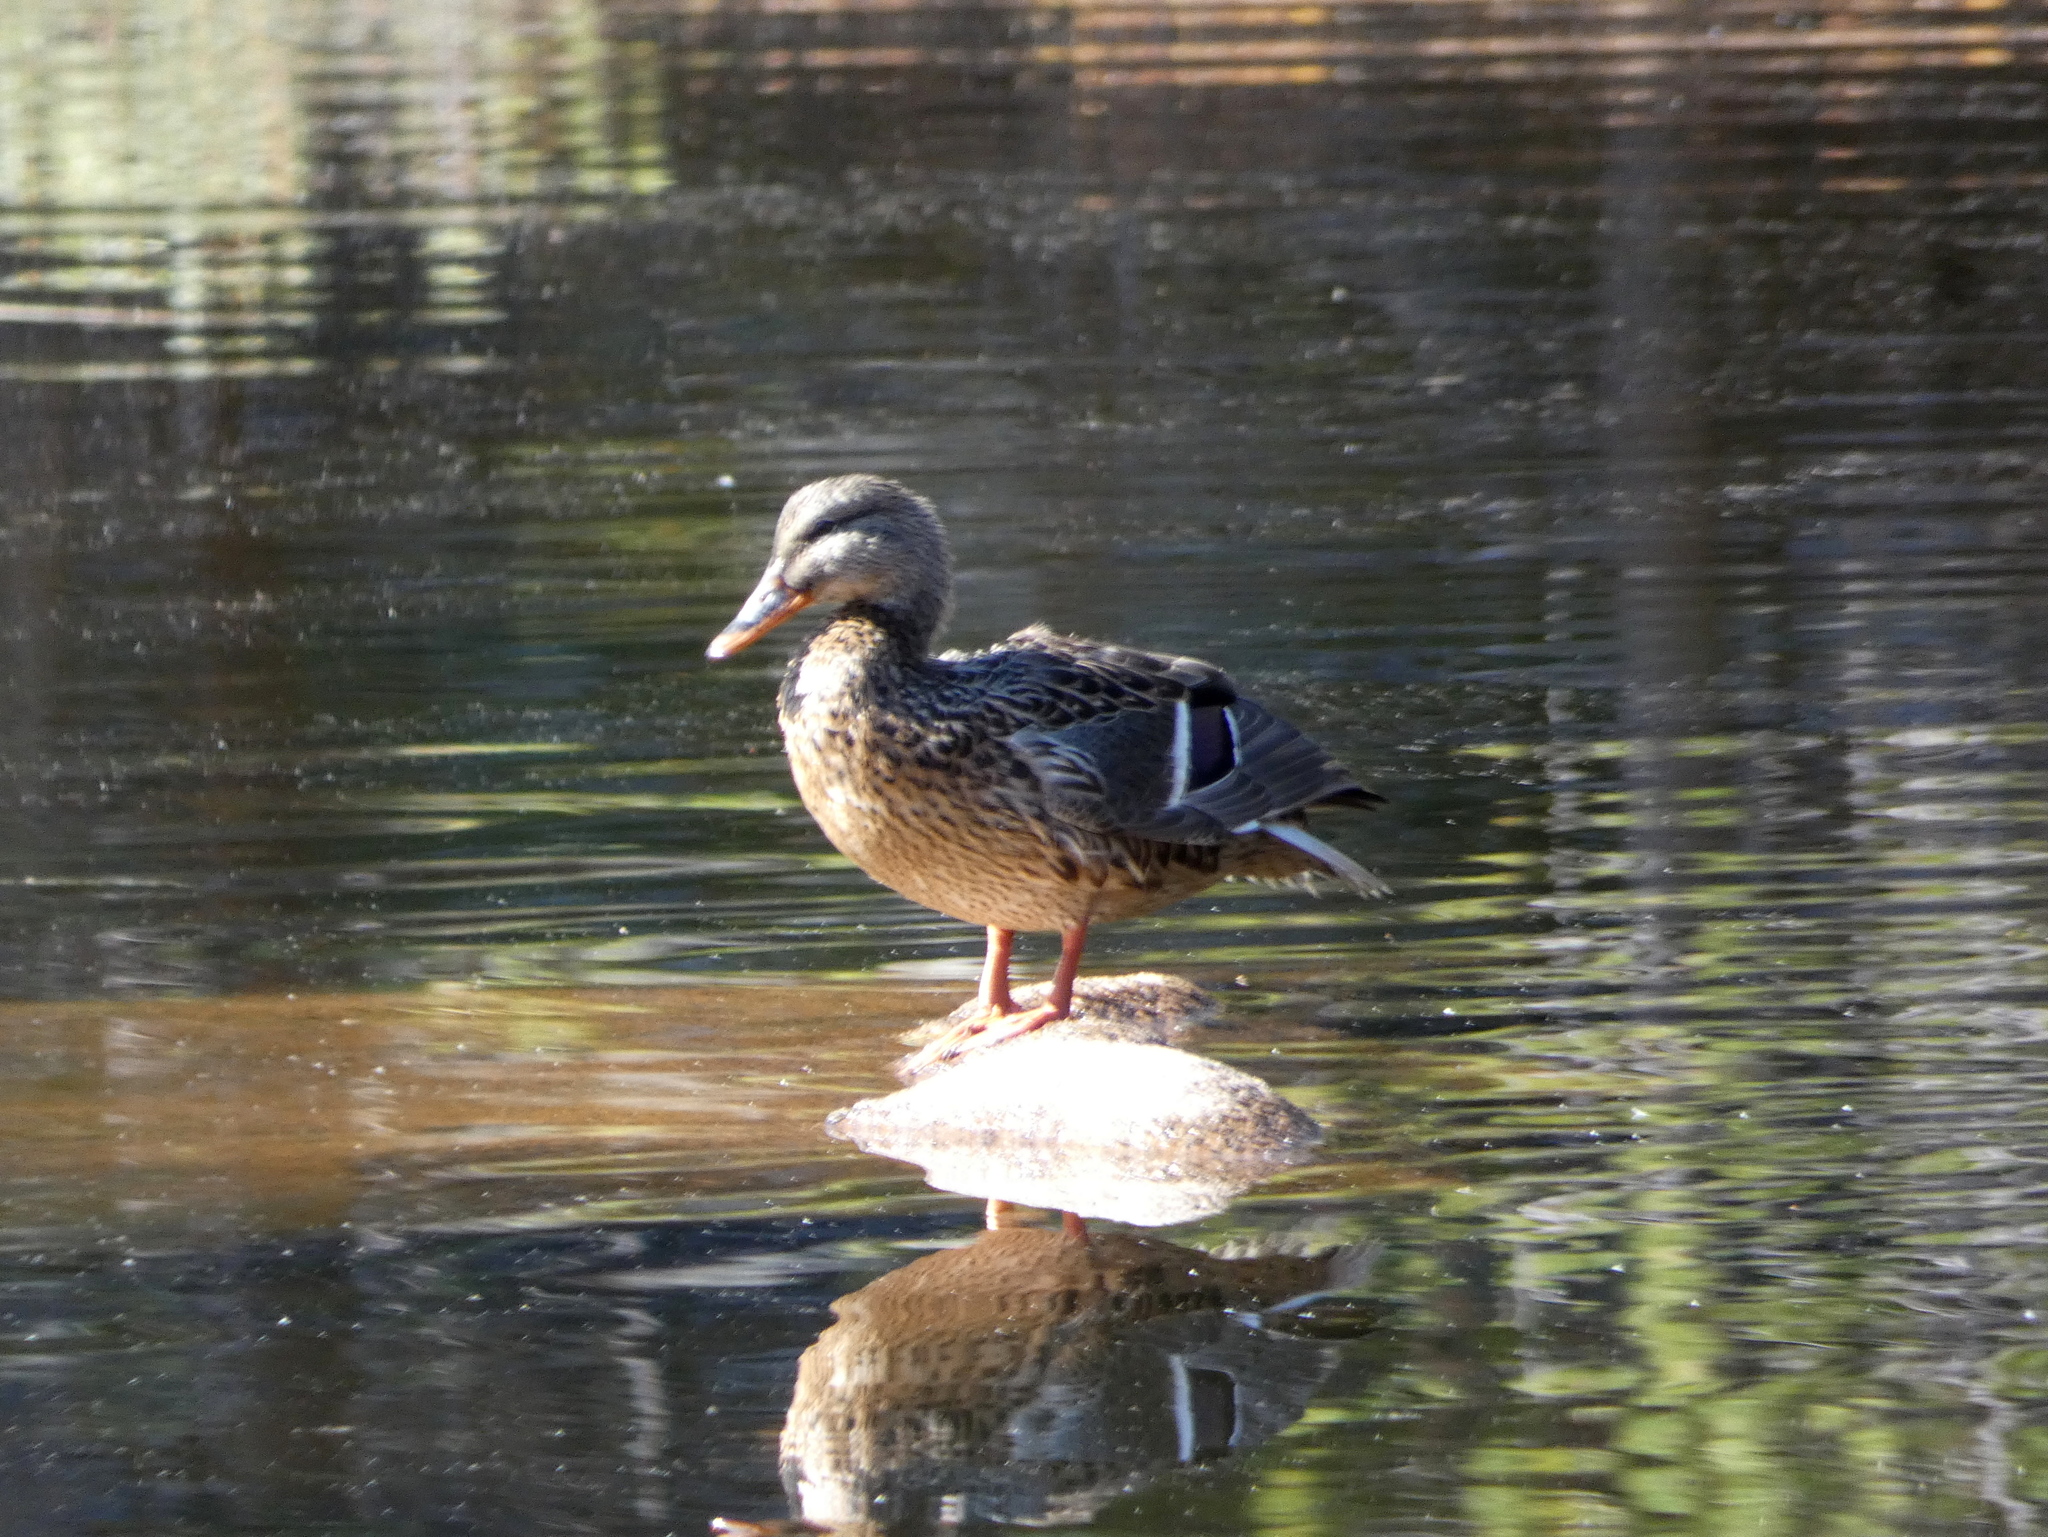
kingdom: Animalia
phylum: Chordata
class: Aves
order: Anseriformes
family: Anatidae
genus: Anas
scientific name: Anas platyrhynchos
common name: Mallard
